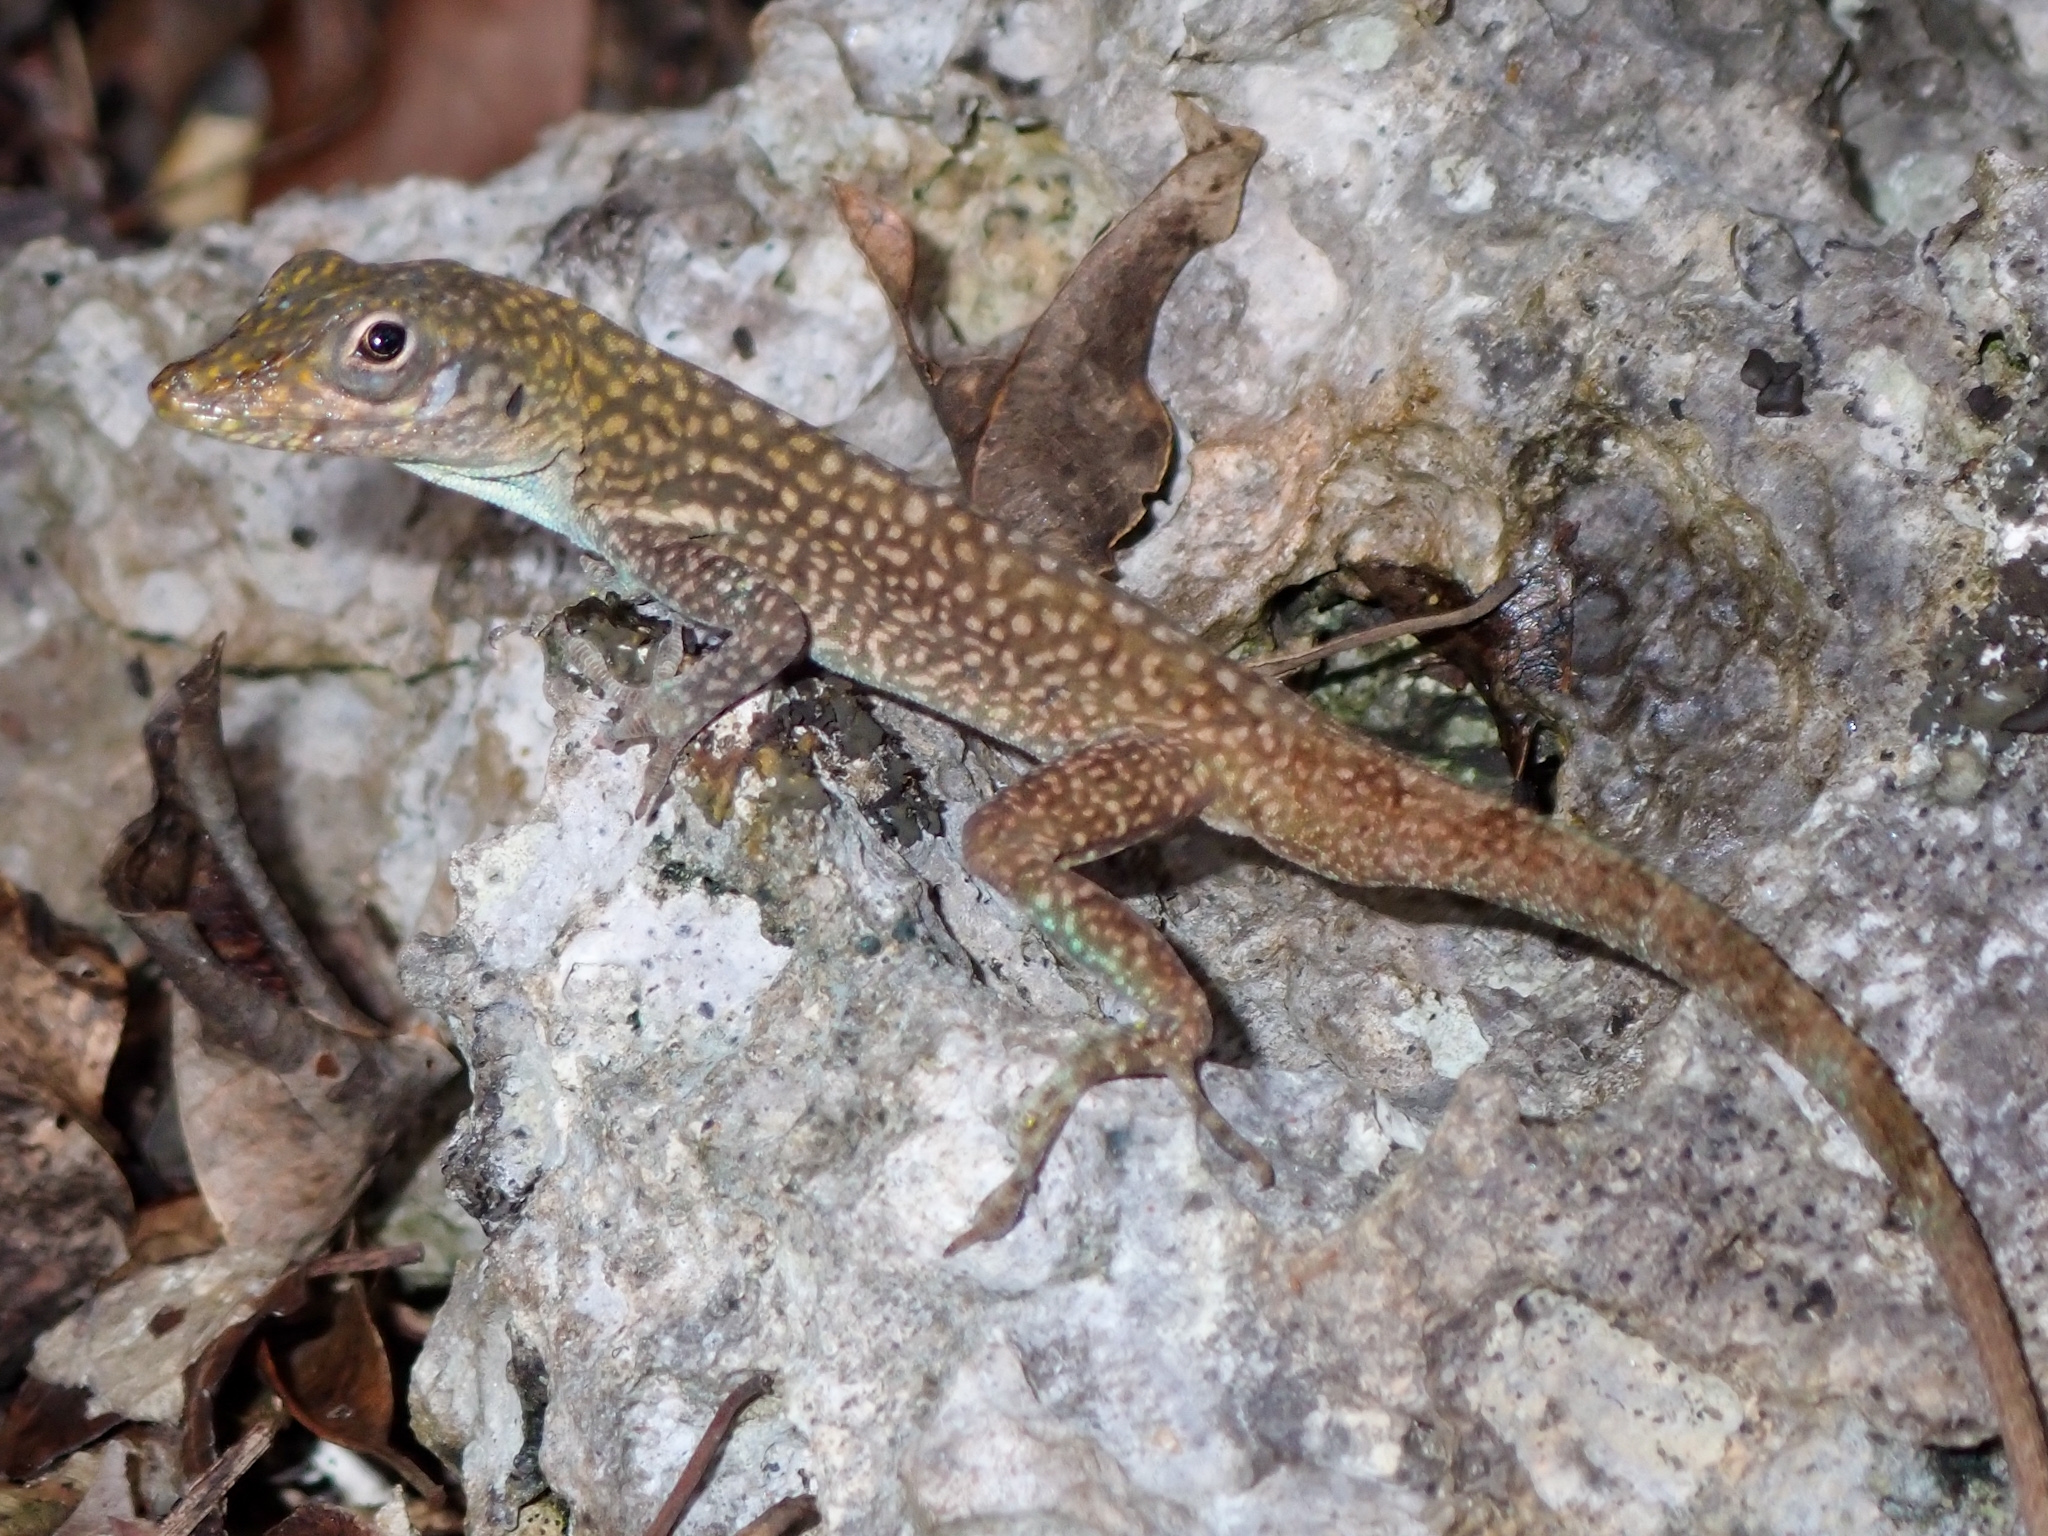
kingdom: Animalia
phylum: Chordata
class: Squamata
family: Dactyloidae
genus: Anolis
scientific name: Anolis conspersus
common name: Grand cayman anole
